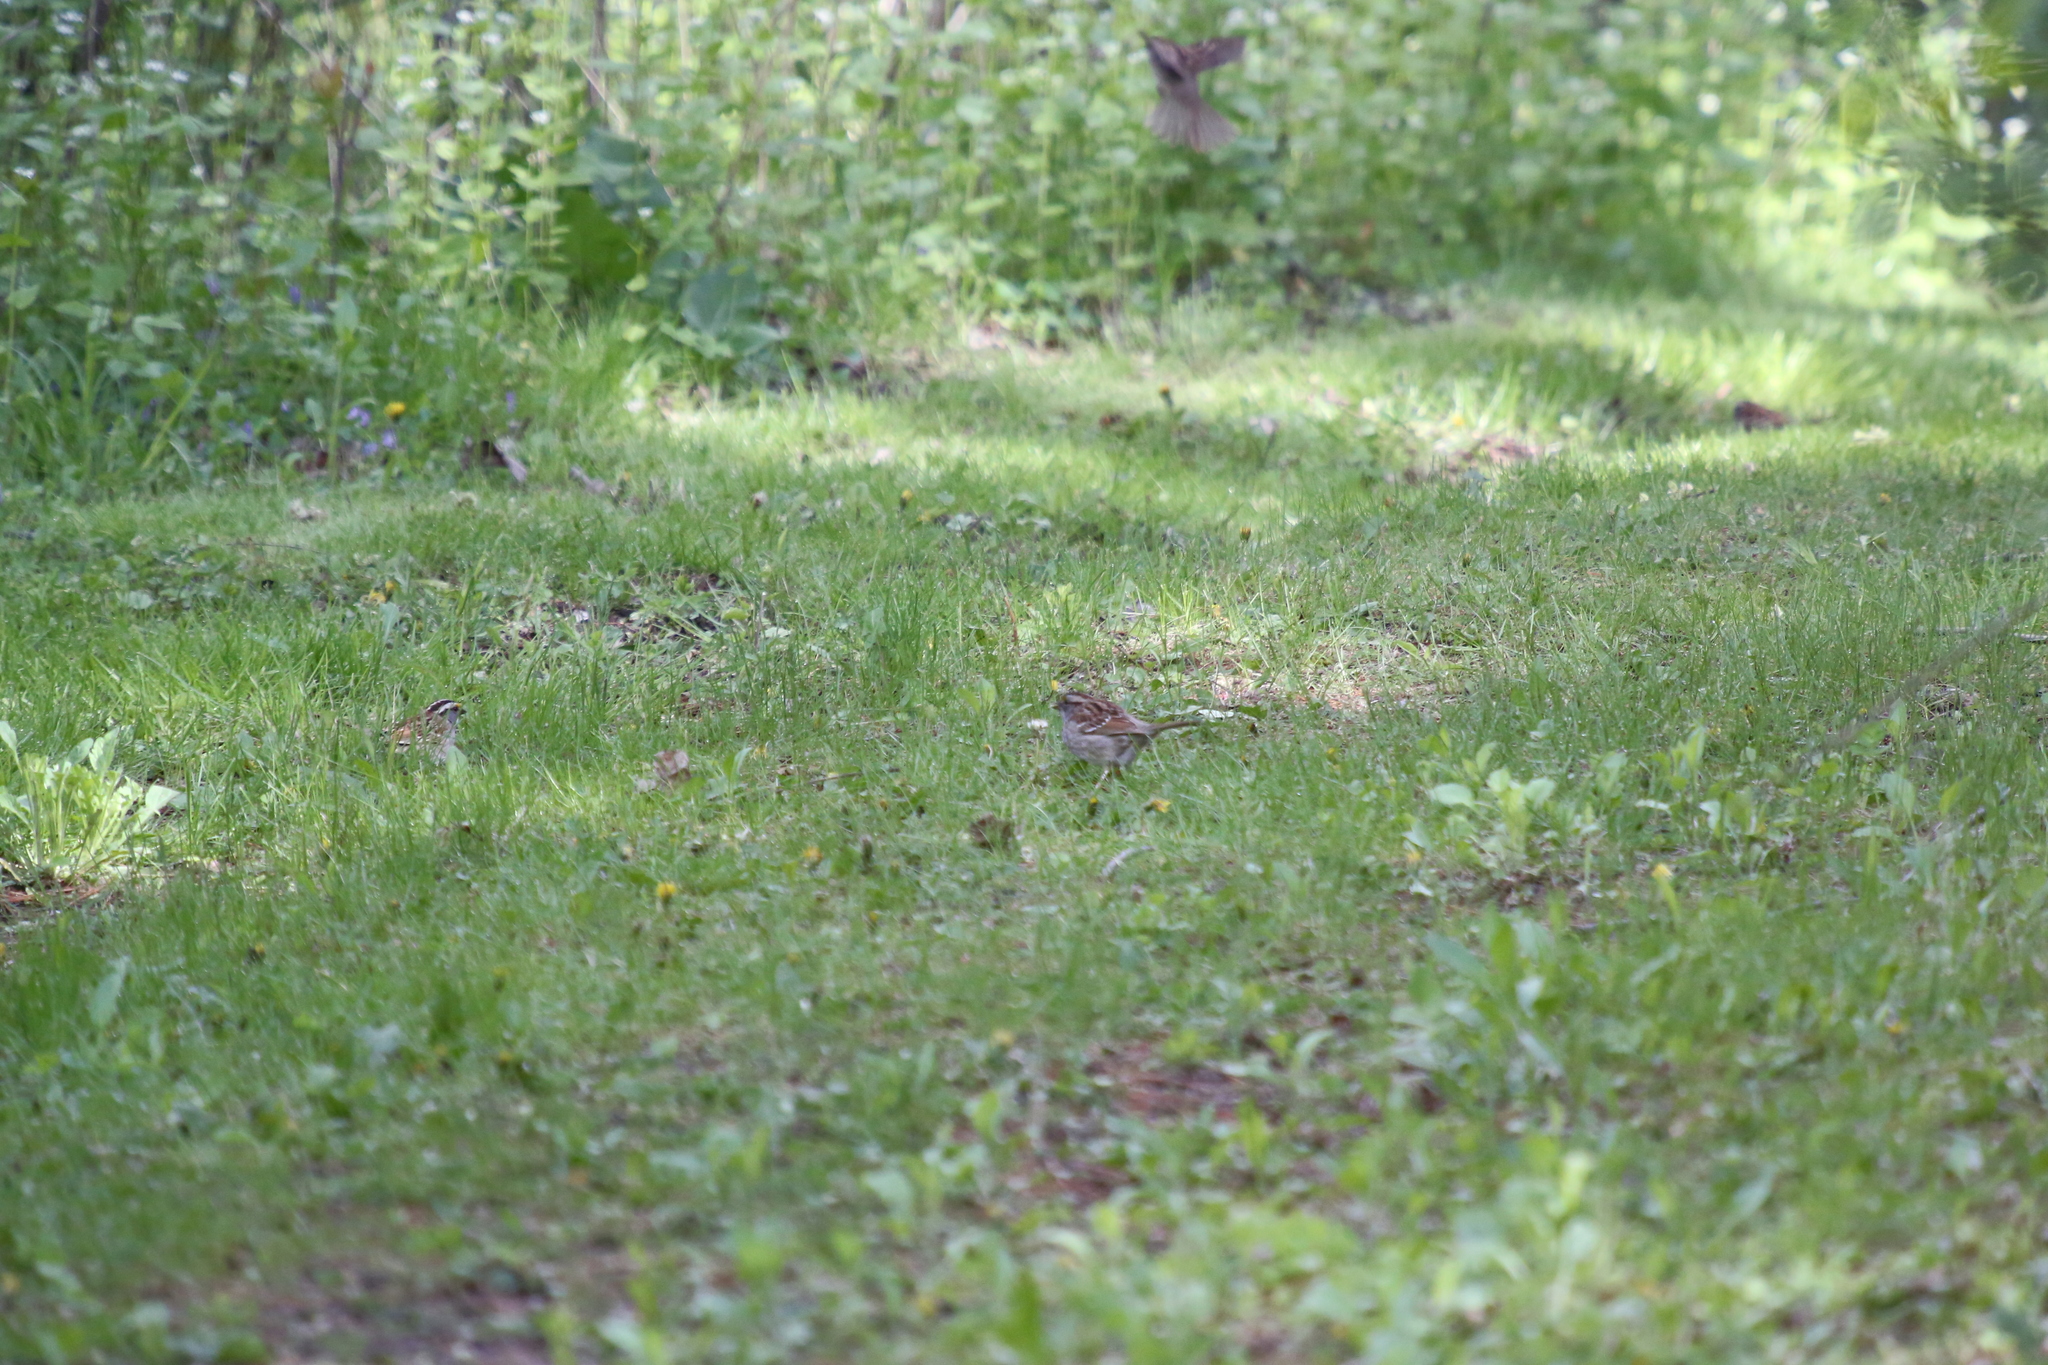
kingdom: Animalia
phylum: Chordata
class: Aves
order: Passeriformes
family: Passerellidae
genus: Zonotrichia
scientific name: Zonotrichia albicollis
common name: White-throated sparrow
